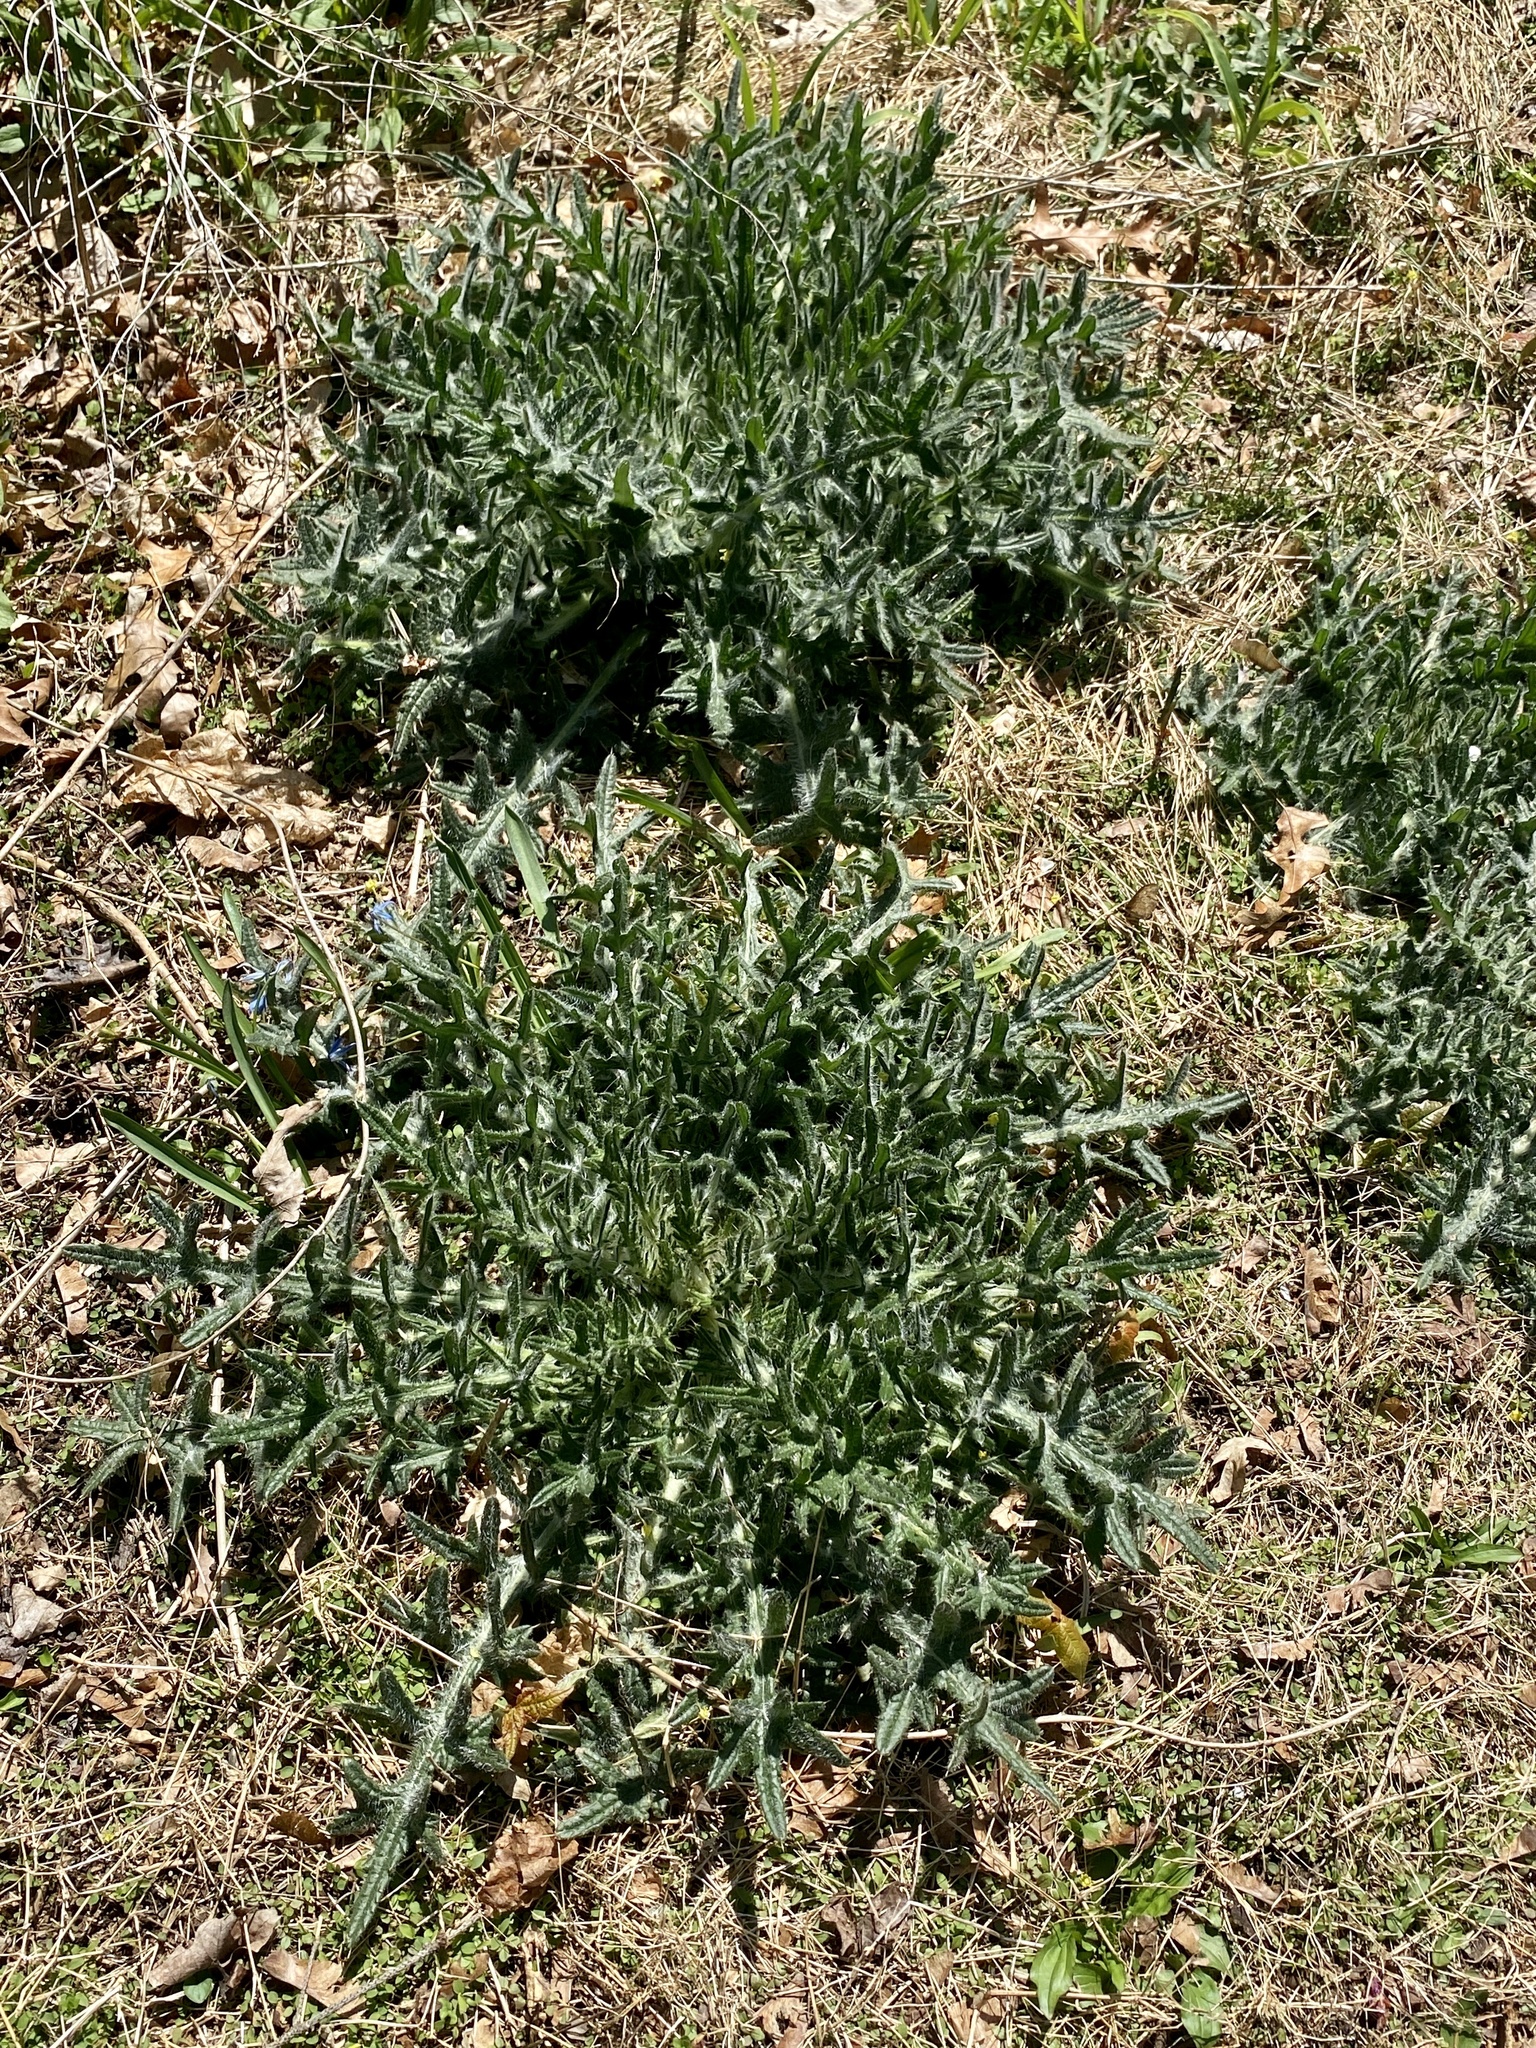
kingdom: Plantae
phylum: Tracheophyta
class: Magnoliopsida
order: Asterales
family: Asteraceae
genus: Cirsium
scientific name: Cirsium vulgare
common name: Bull thistle
